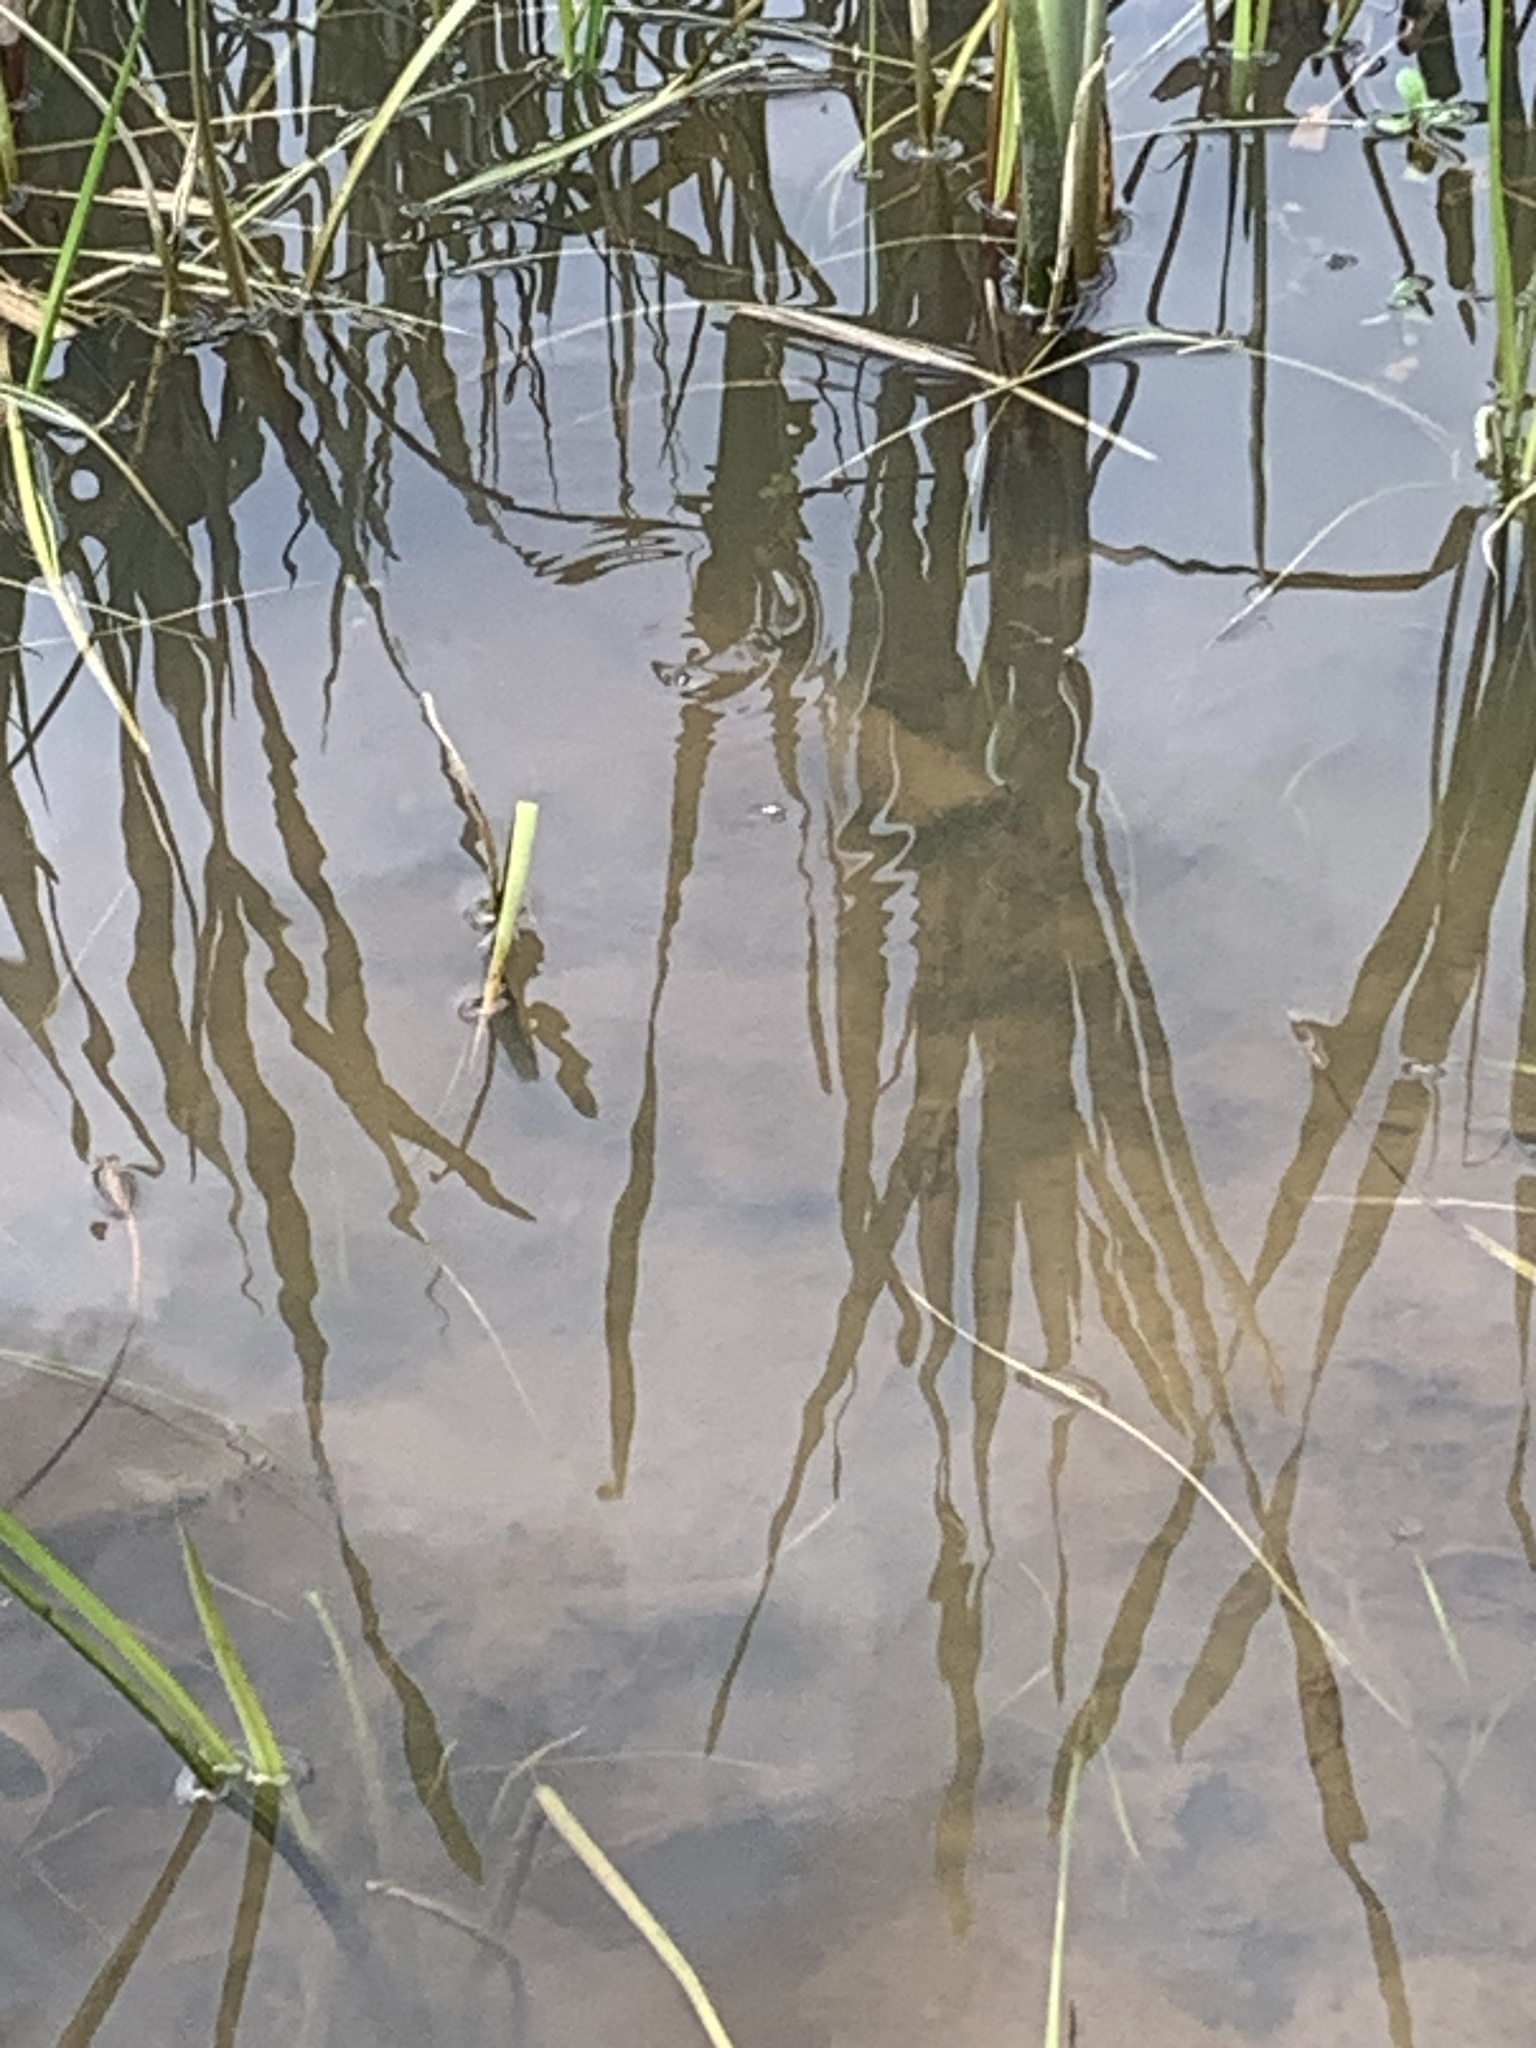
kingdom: Animalia
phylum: Arthropoda
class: Insecta
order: Coleoptera
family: Gyrinidae
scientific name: Gyrinidae
